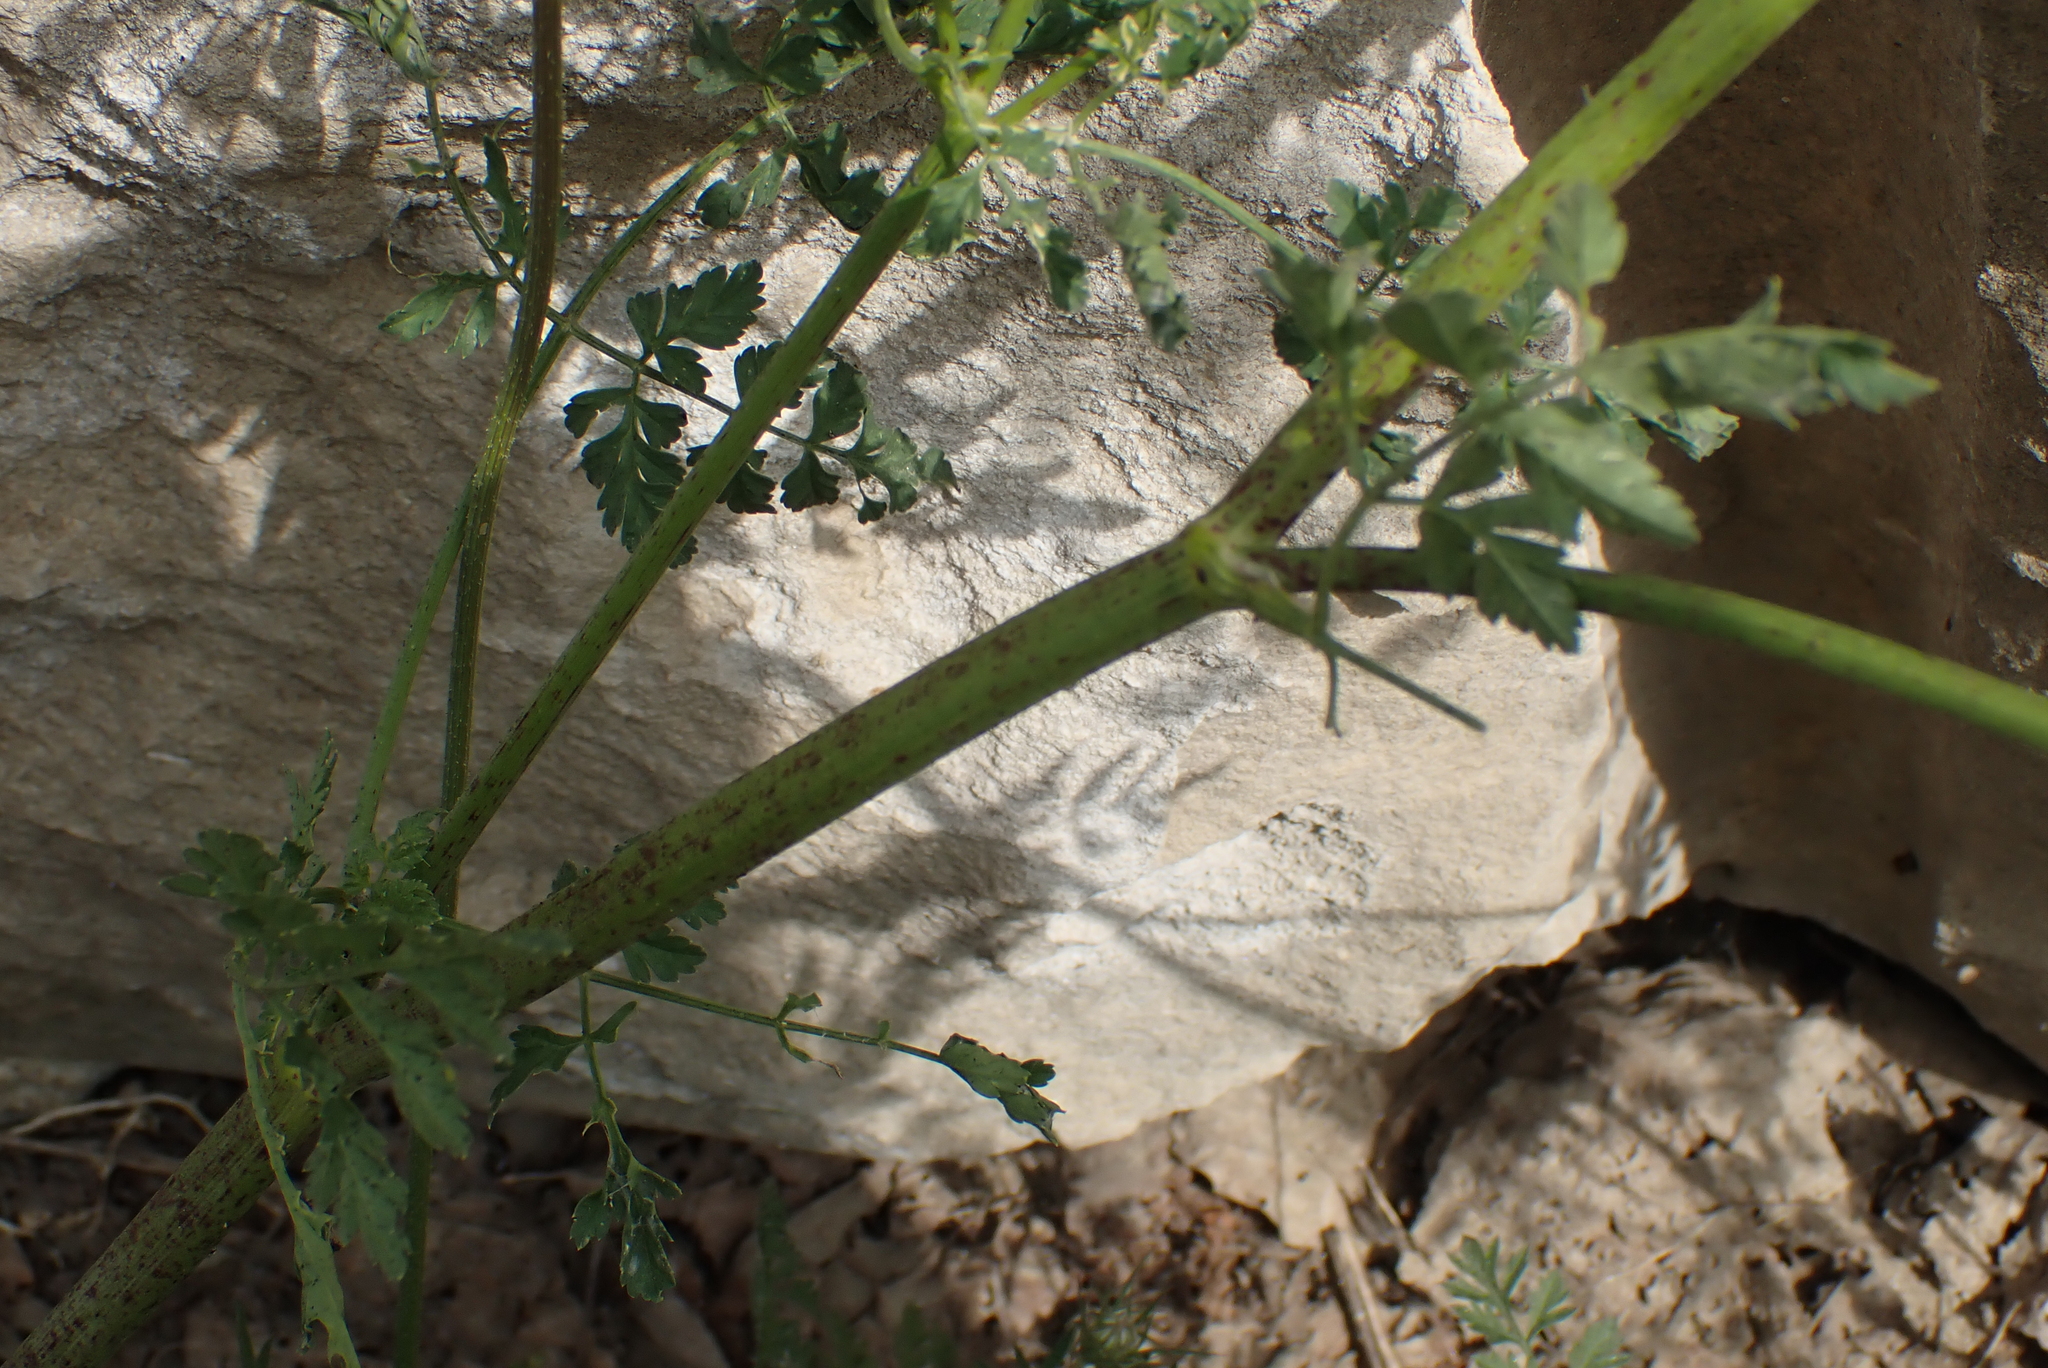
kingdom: Plantae
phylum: Tracheophyta
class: Magnoliopsida
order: Apiales
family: Apiaceae
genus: Conium
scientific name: Conium maculatum
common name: Hemlock
